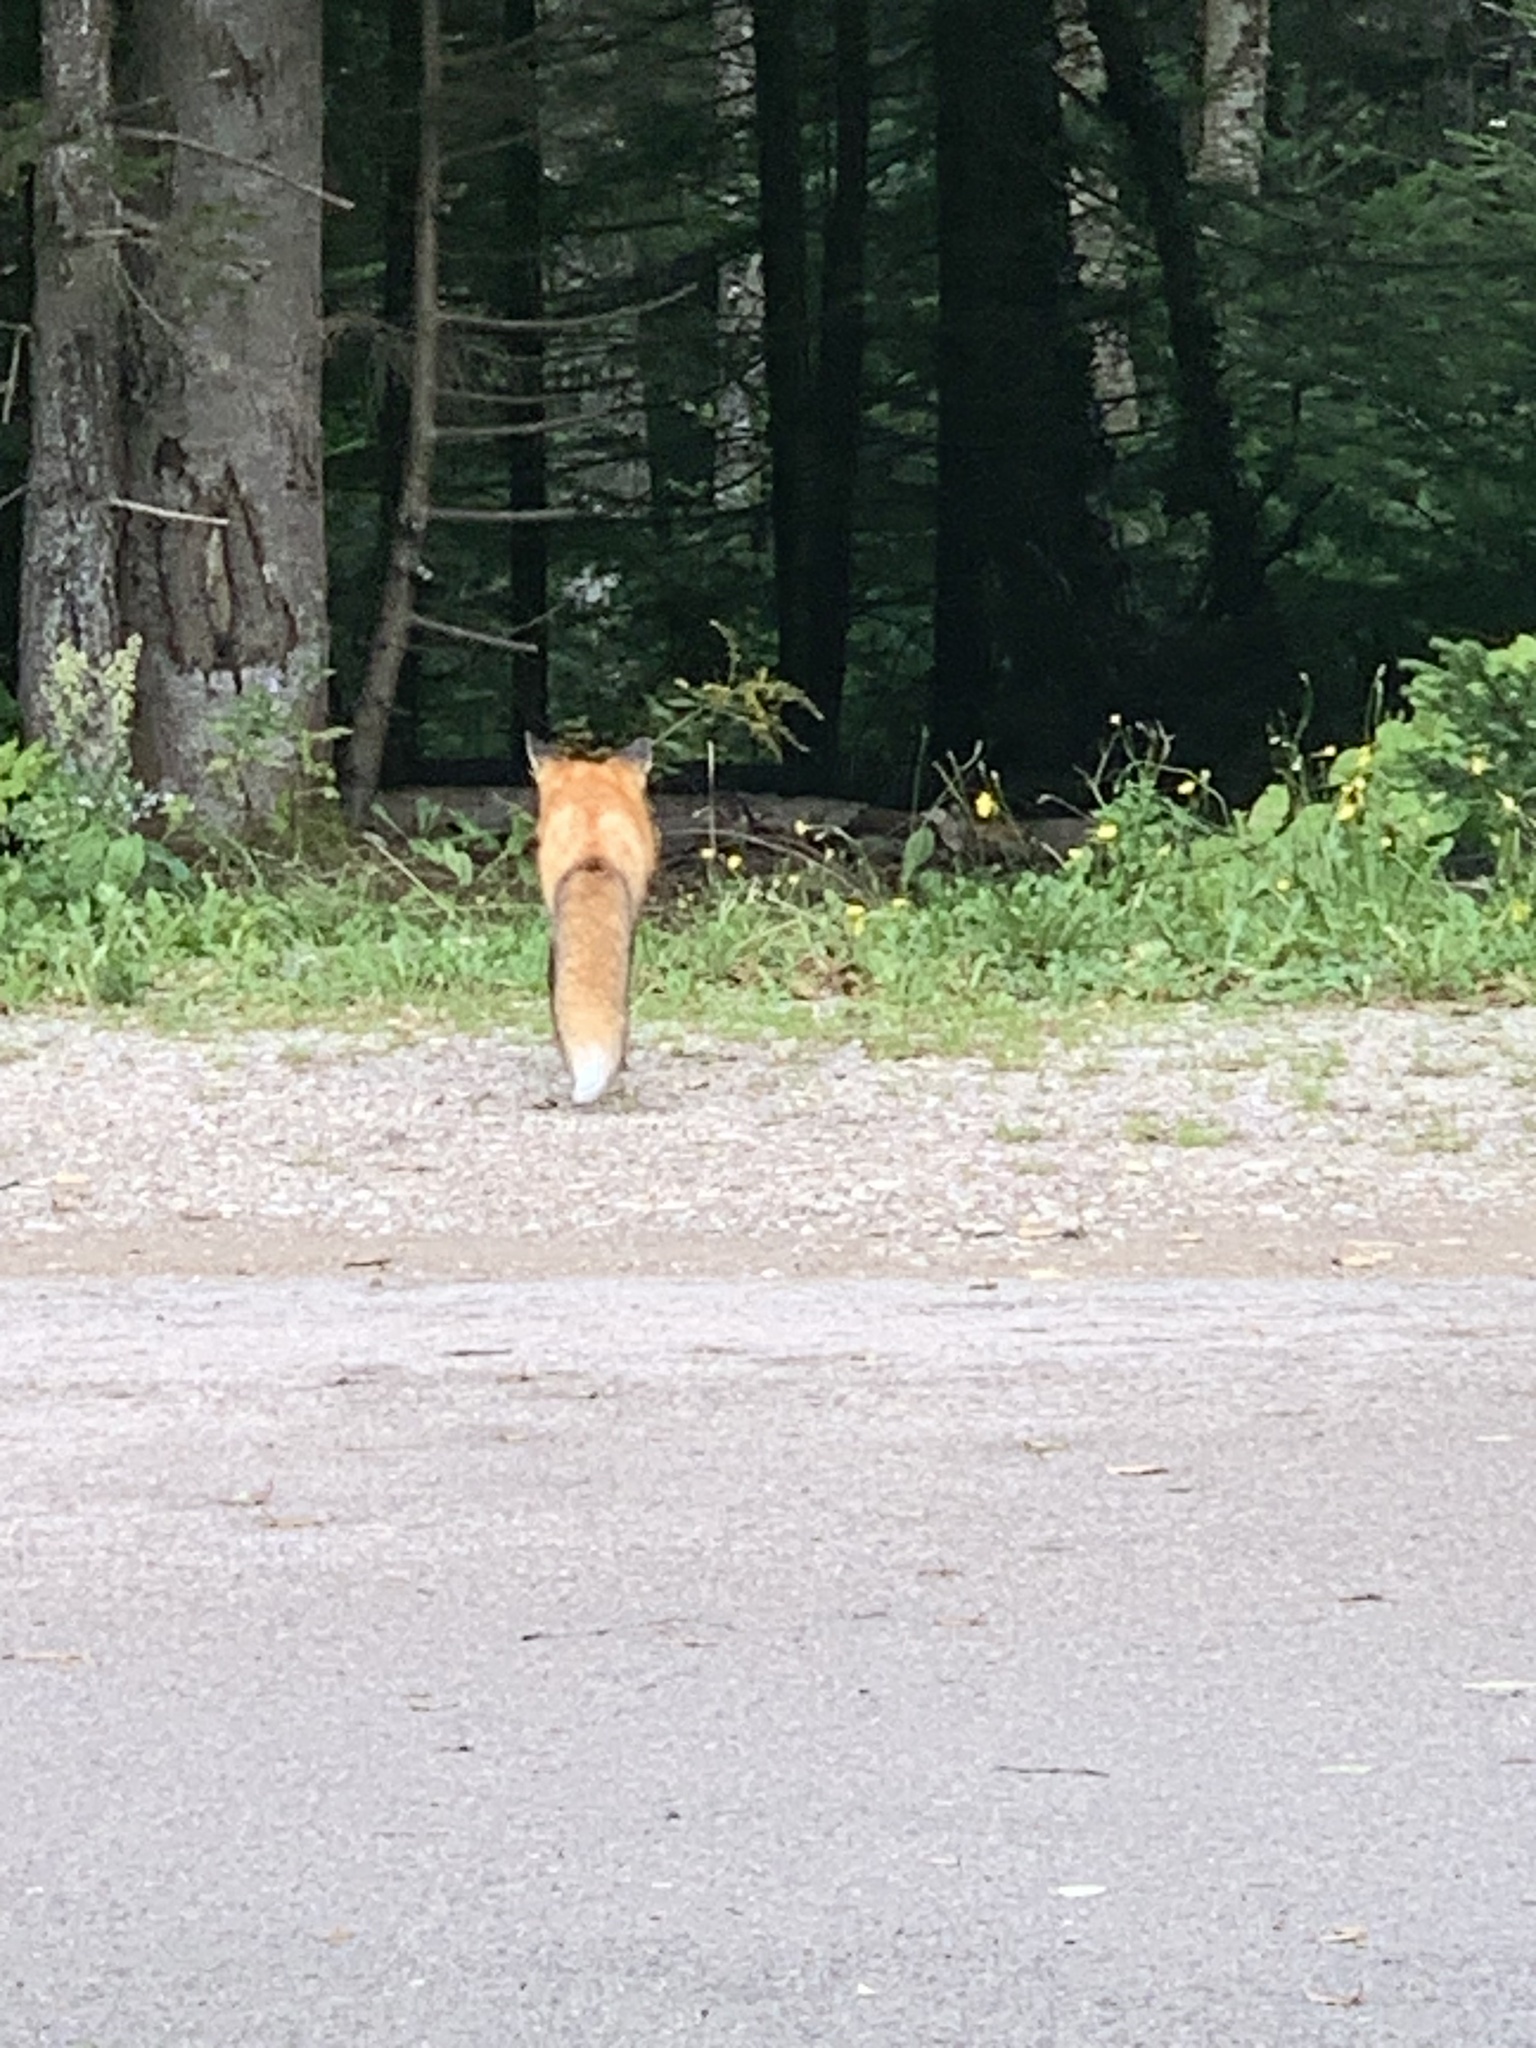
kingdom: Animalia
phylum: Chordata
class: Mammalia
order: Carnivora
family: Canidae
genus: Vulpes
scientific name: Vulpes vulpes
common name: Red fox
